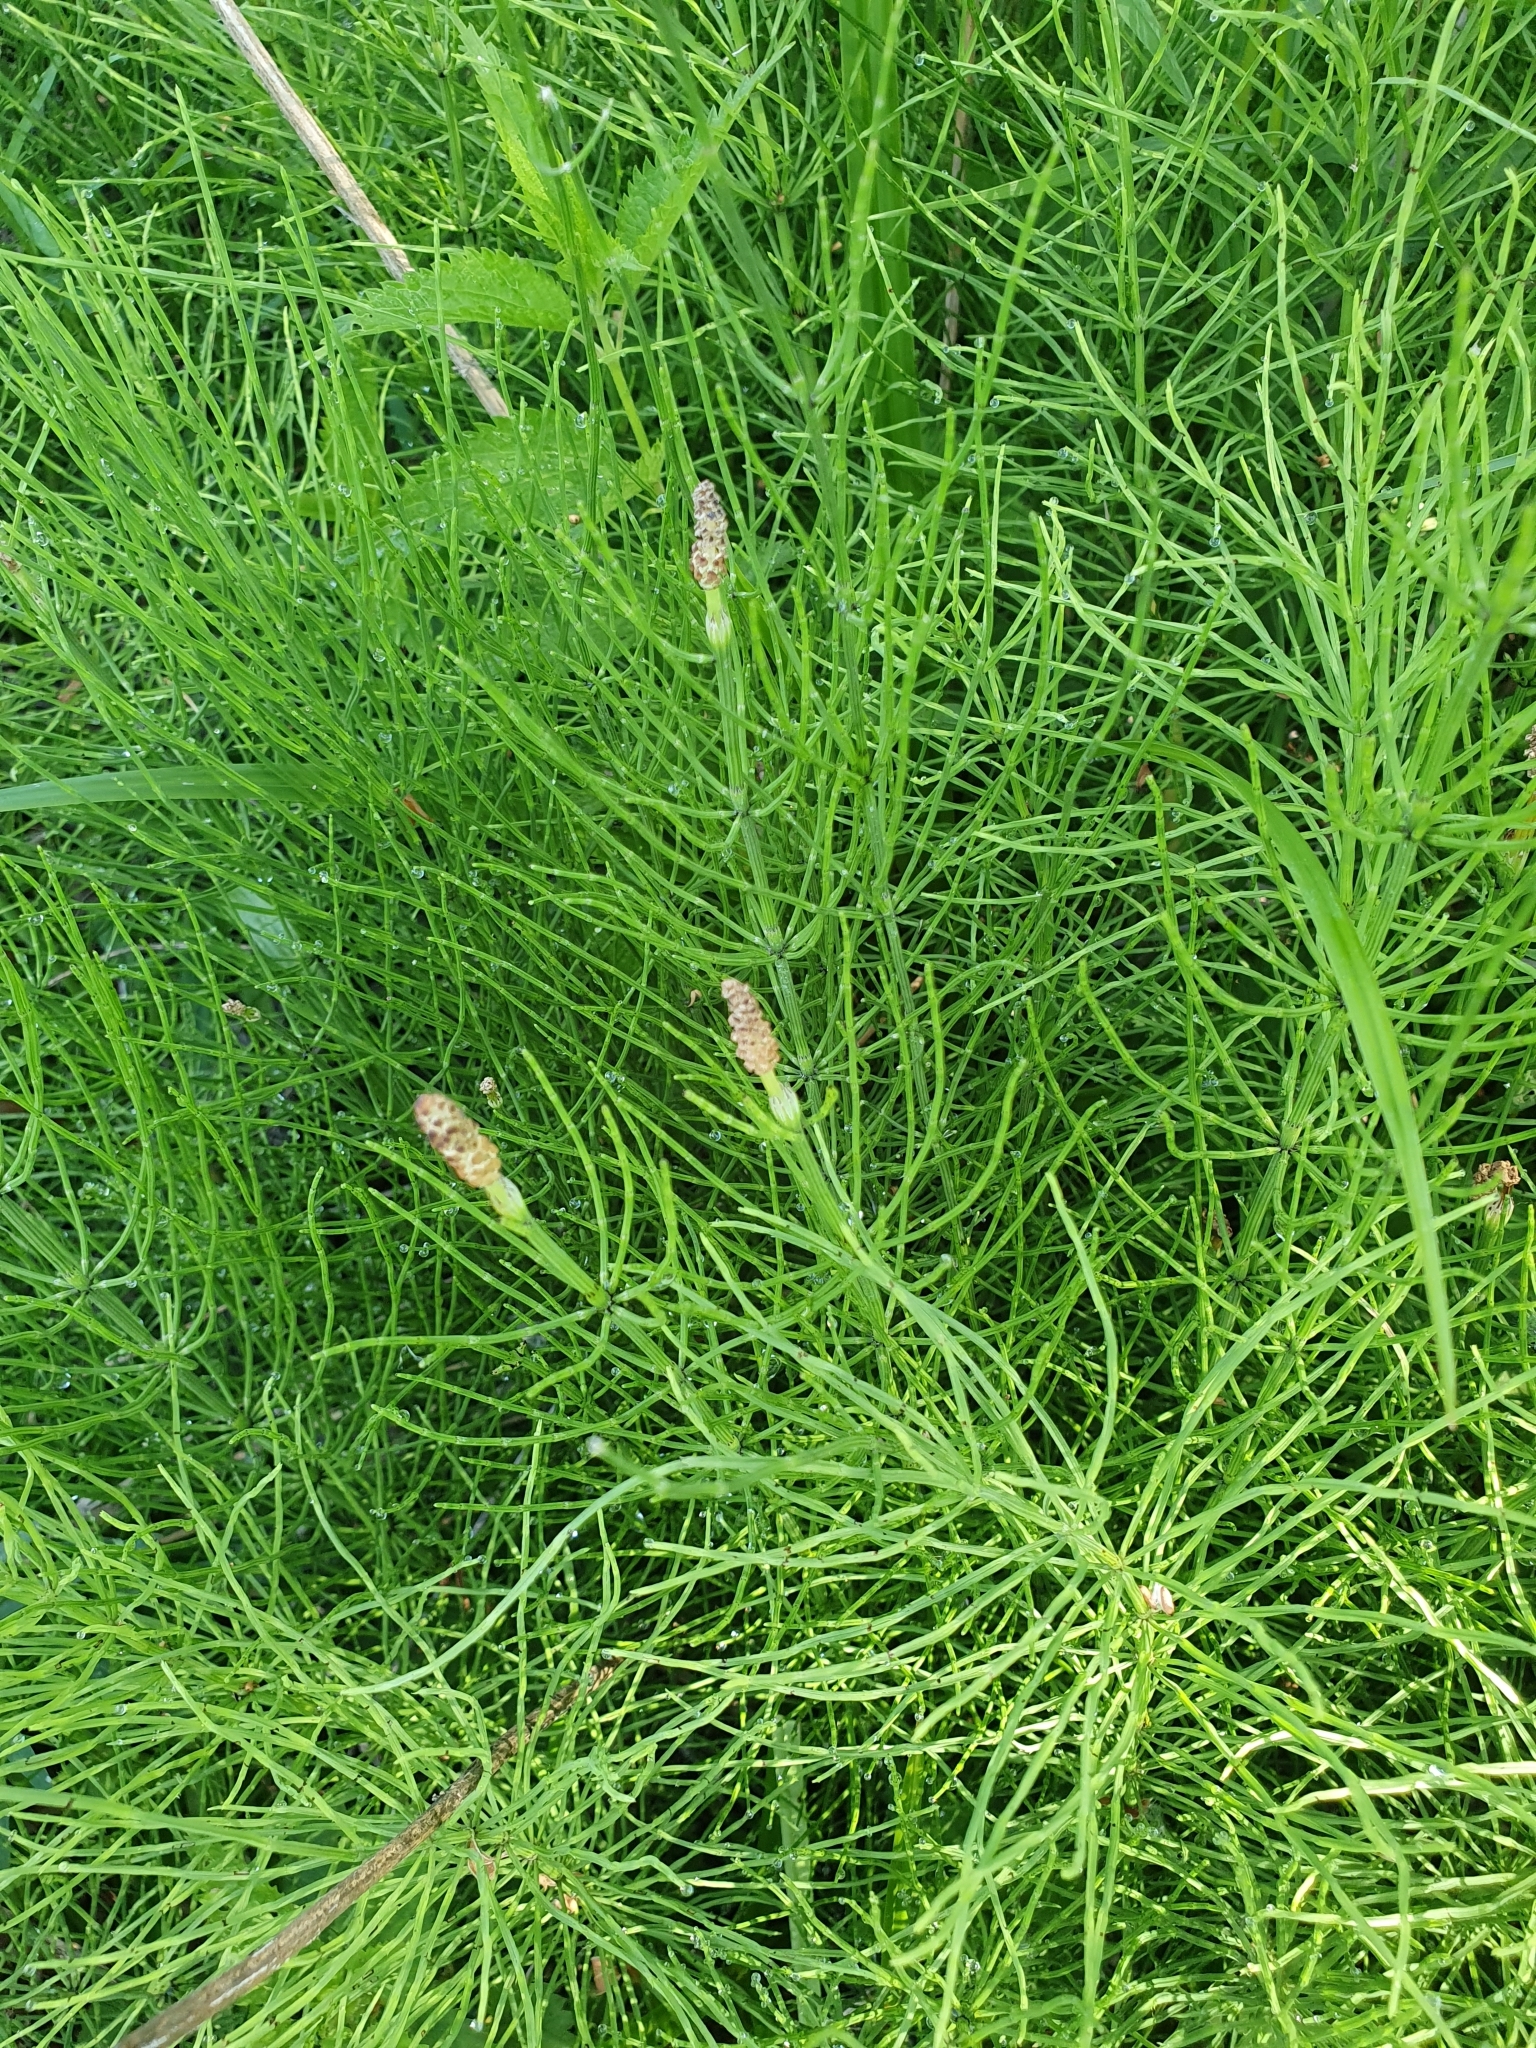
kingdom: Plantae
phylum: Tracheophyta
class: Polypodiopsida
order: Equisetales
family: Equisetaceae
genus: Equisetum
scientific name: Equisetum palustre
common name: Marsh horsetail
